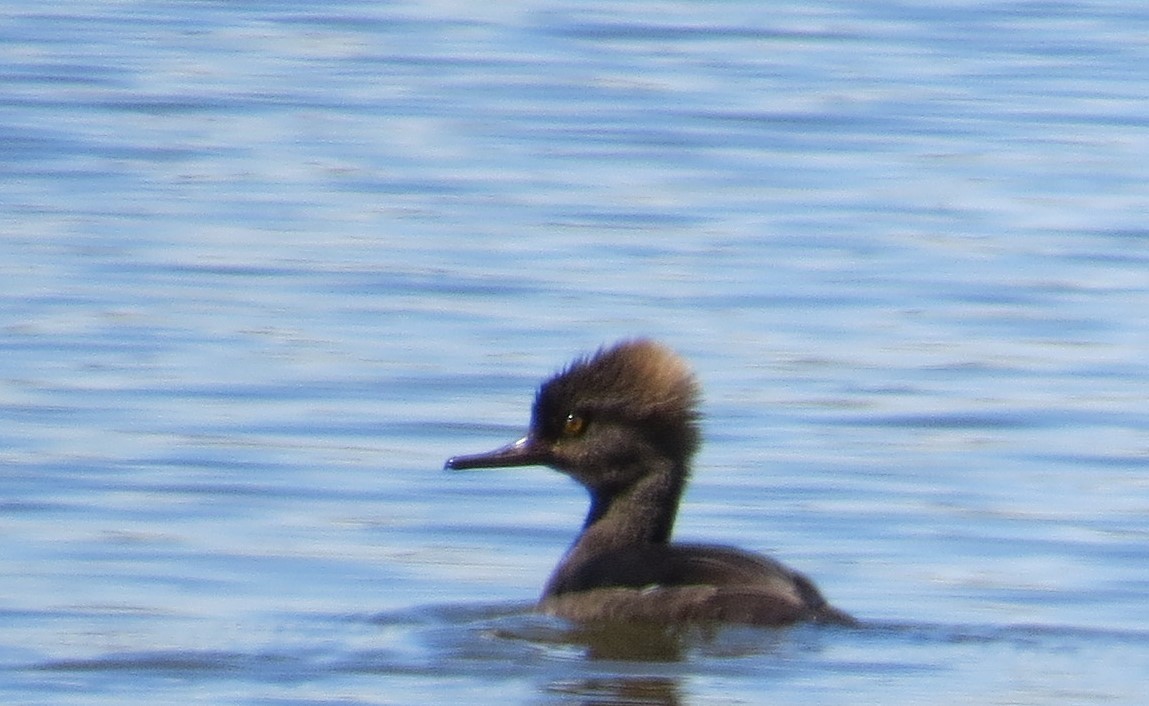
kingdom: Animalia
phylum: Chordata
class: Aves
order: Anseriformes
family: Anatidae
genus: Lophodytes
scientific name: Lophodytes cucullatus
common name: Hooded merganser
